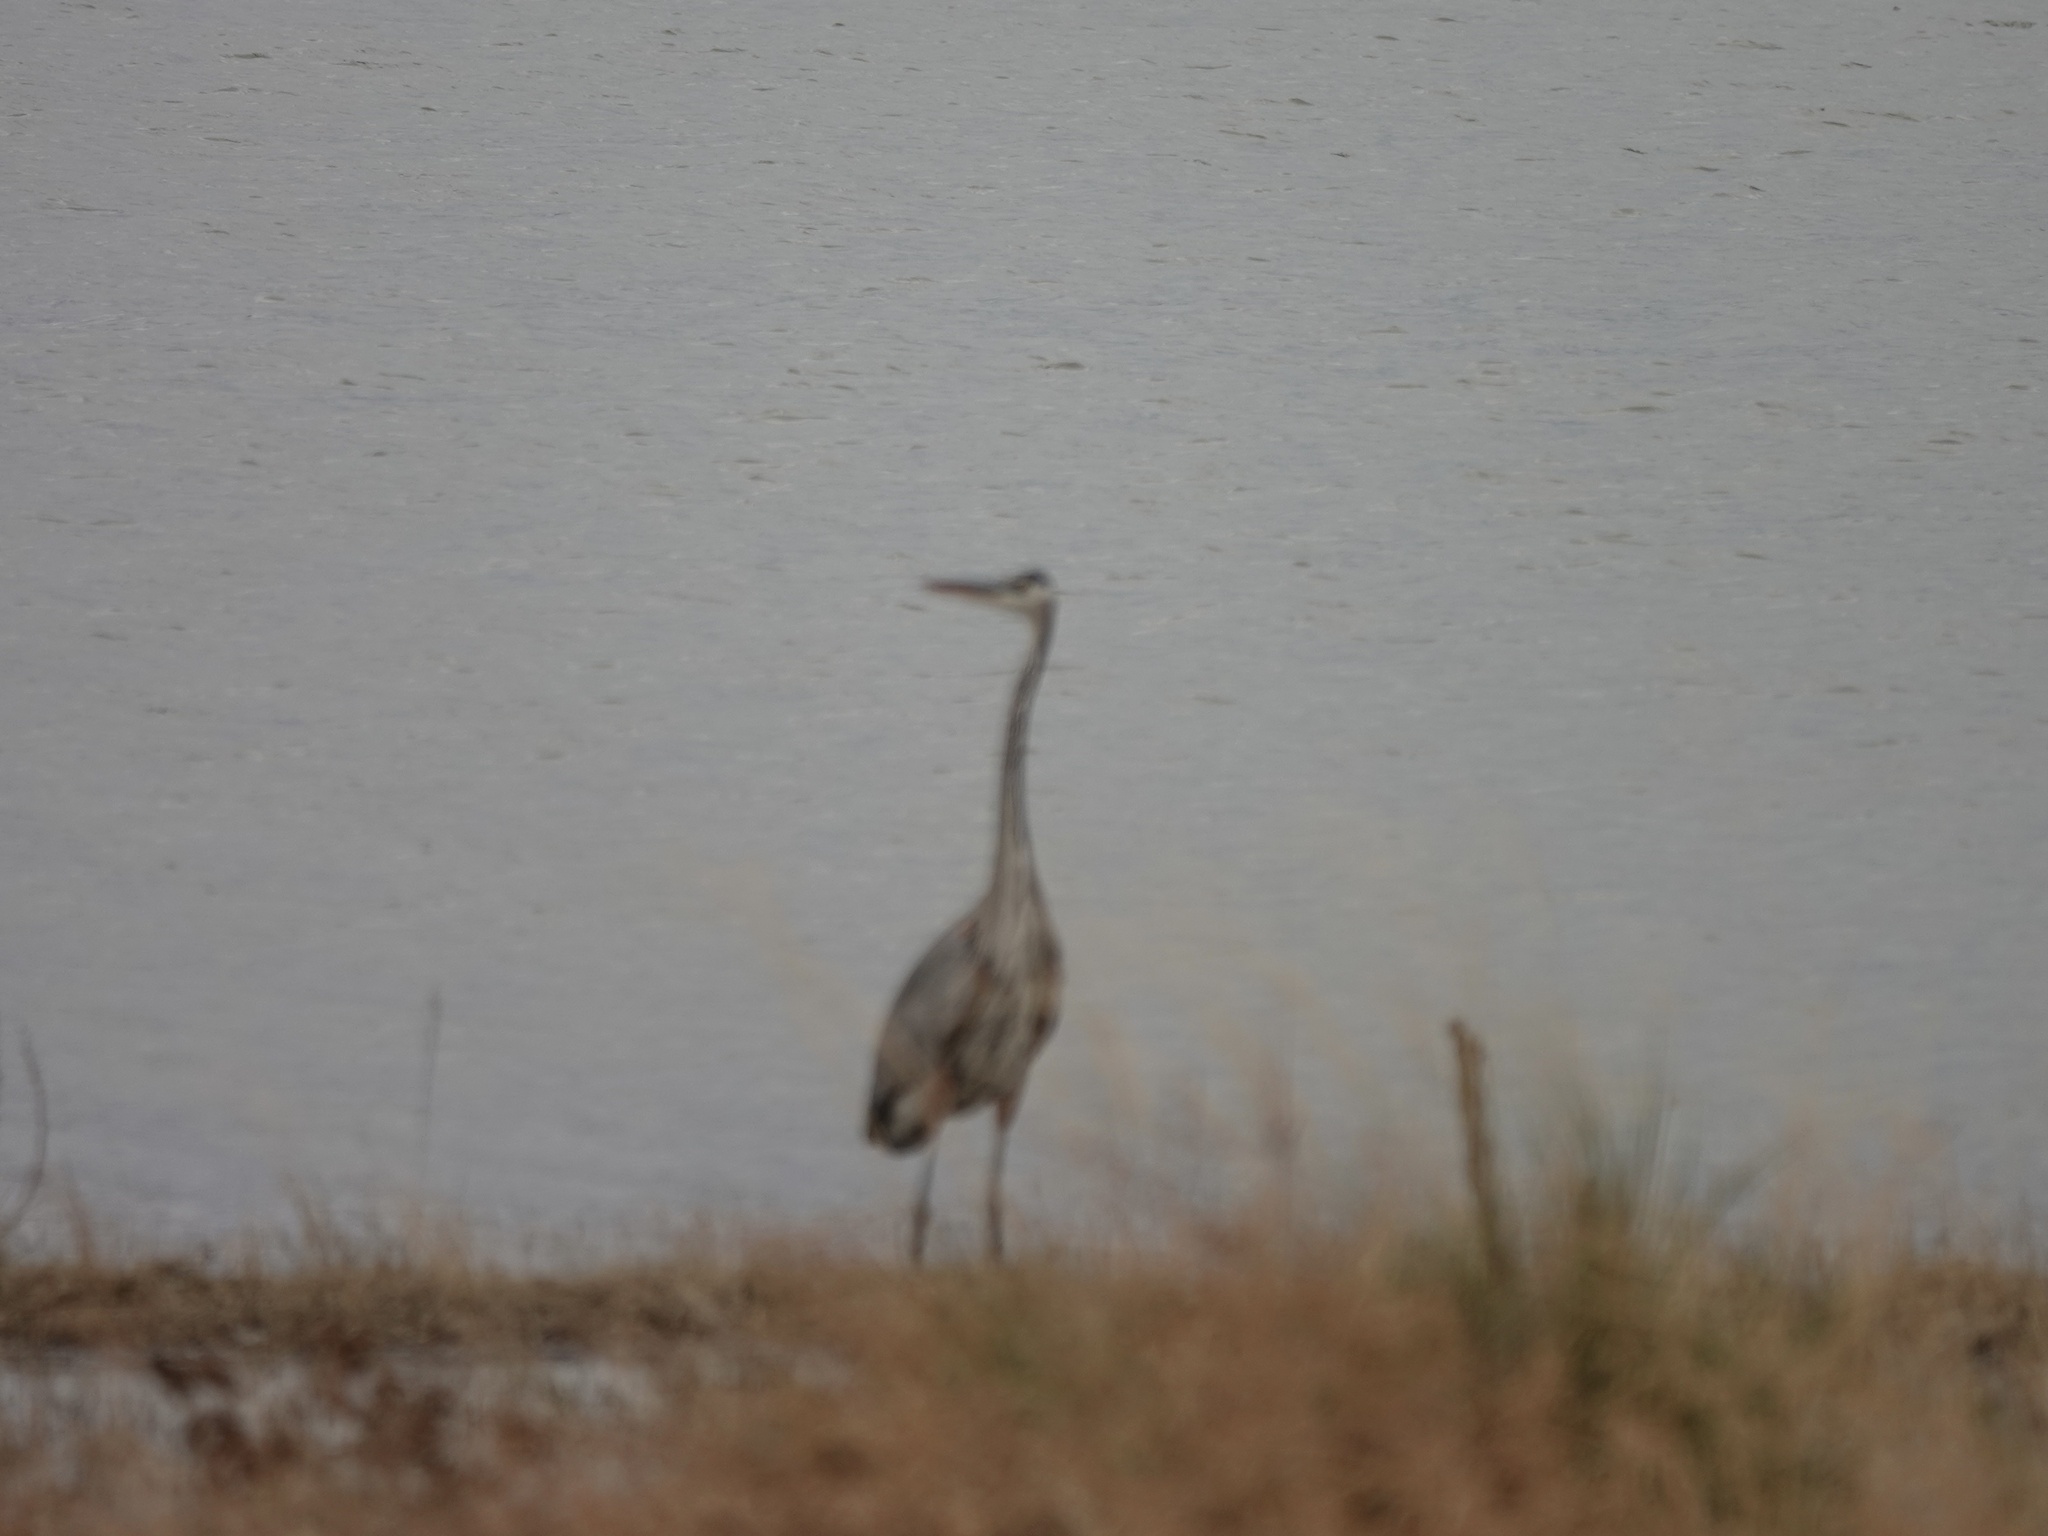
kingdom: Animalia
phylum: Chordata
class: Aves
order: Pelecaniformes
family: Ardeidae
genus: Ardea
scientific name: Ardea herodias
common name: Great blue heron
